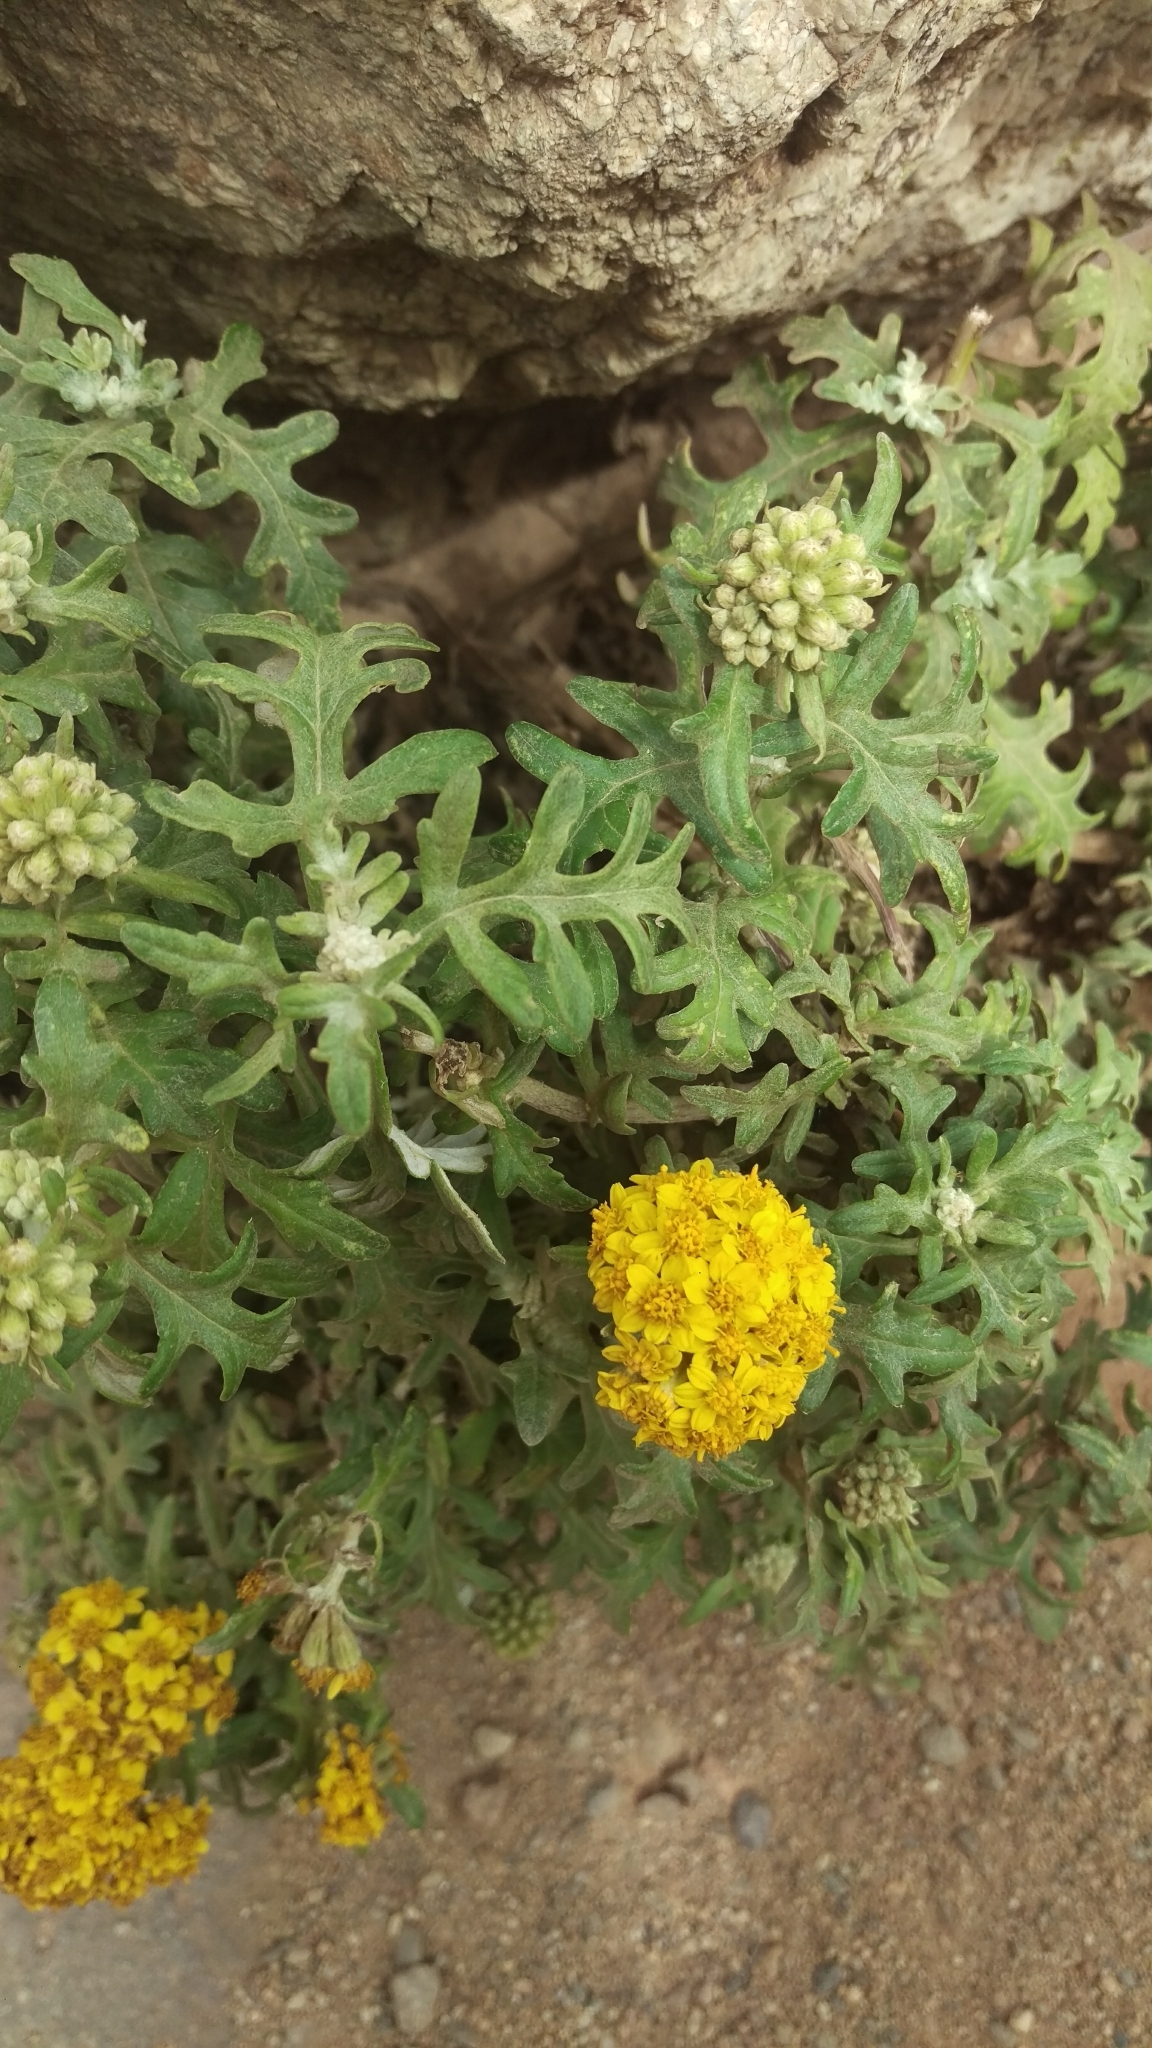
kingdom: Plantae
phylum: Tracheophyta
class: Magnoliopsida
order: Asterales
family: Asteraceae
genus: Eriophyllum
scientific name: Eriophyllum staechadifolium
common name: Lizardtail
